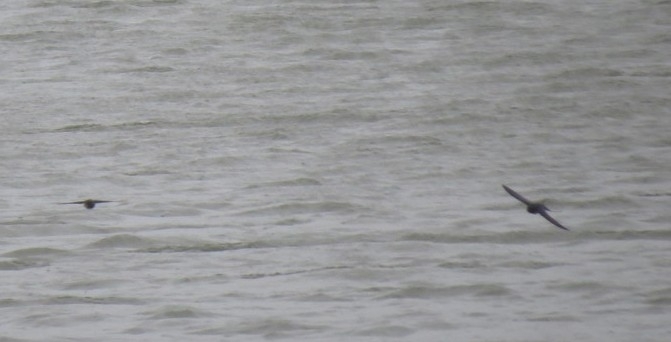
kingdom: Animalia
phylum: Chordata
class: Aves
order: Passeriformes
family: Hirundinidae
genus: Hirundo
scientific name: Hirundo rustica
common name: Barn swallow
